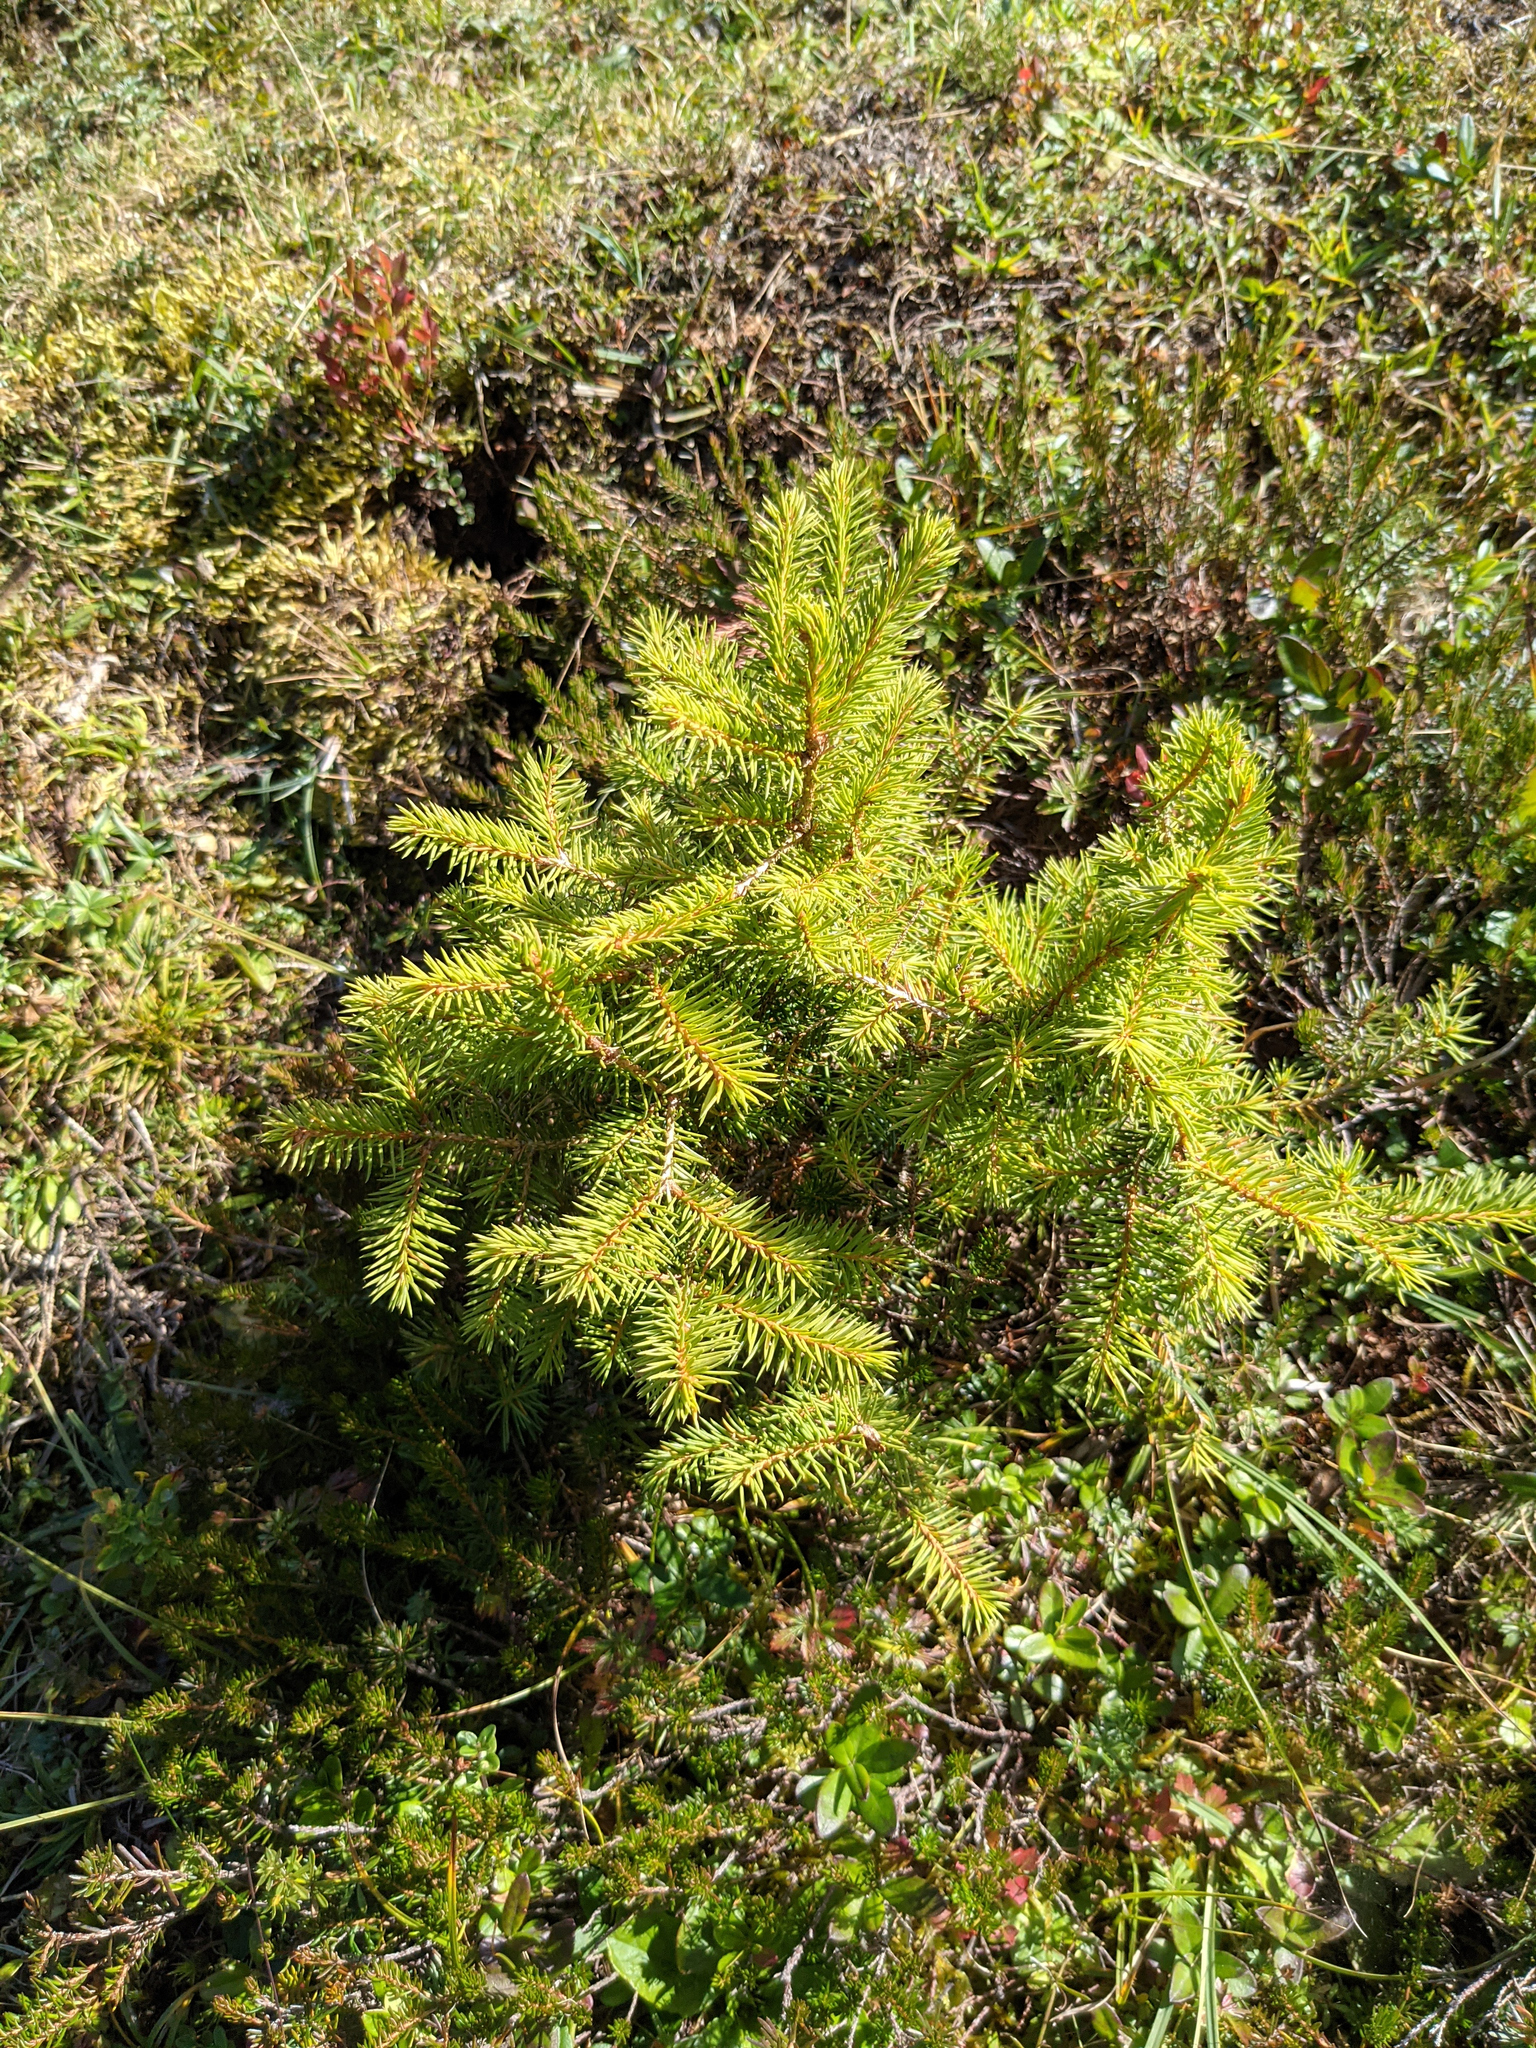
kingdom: Plantae
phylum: Tracheophyta
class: Pinopsida
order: Pinales
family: Pinaceae
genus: Picea
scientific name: Picea abies
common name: Norway spruce
